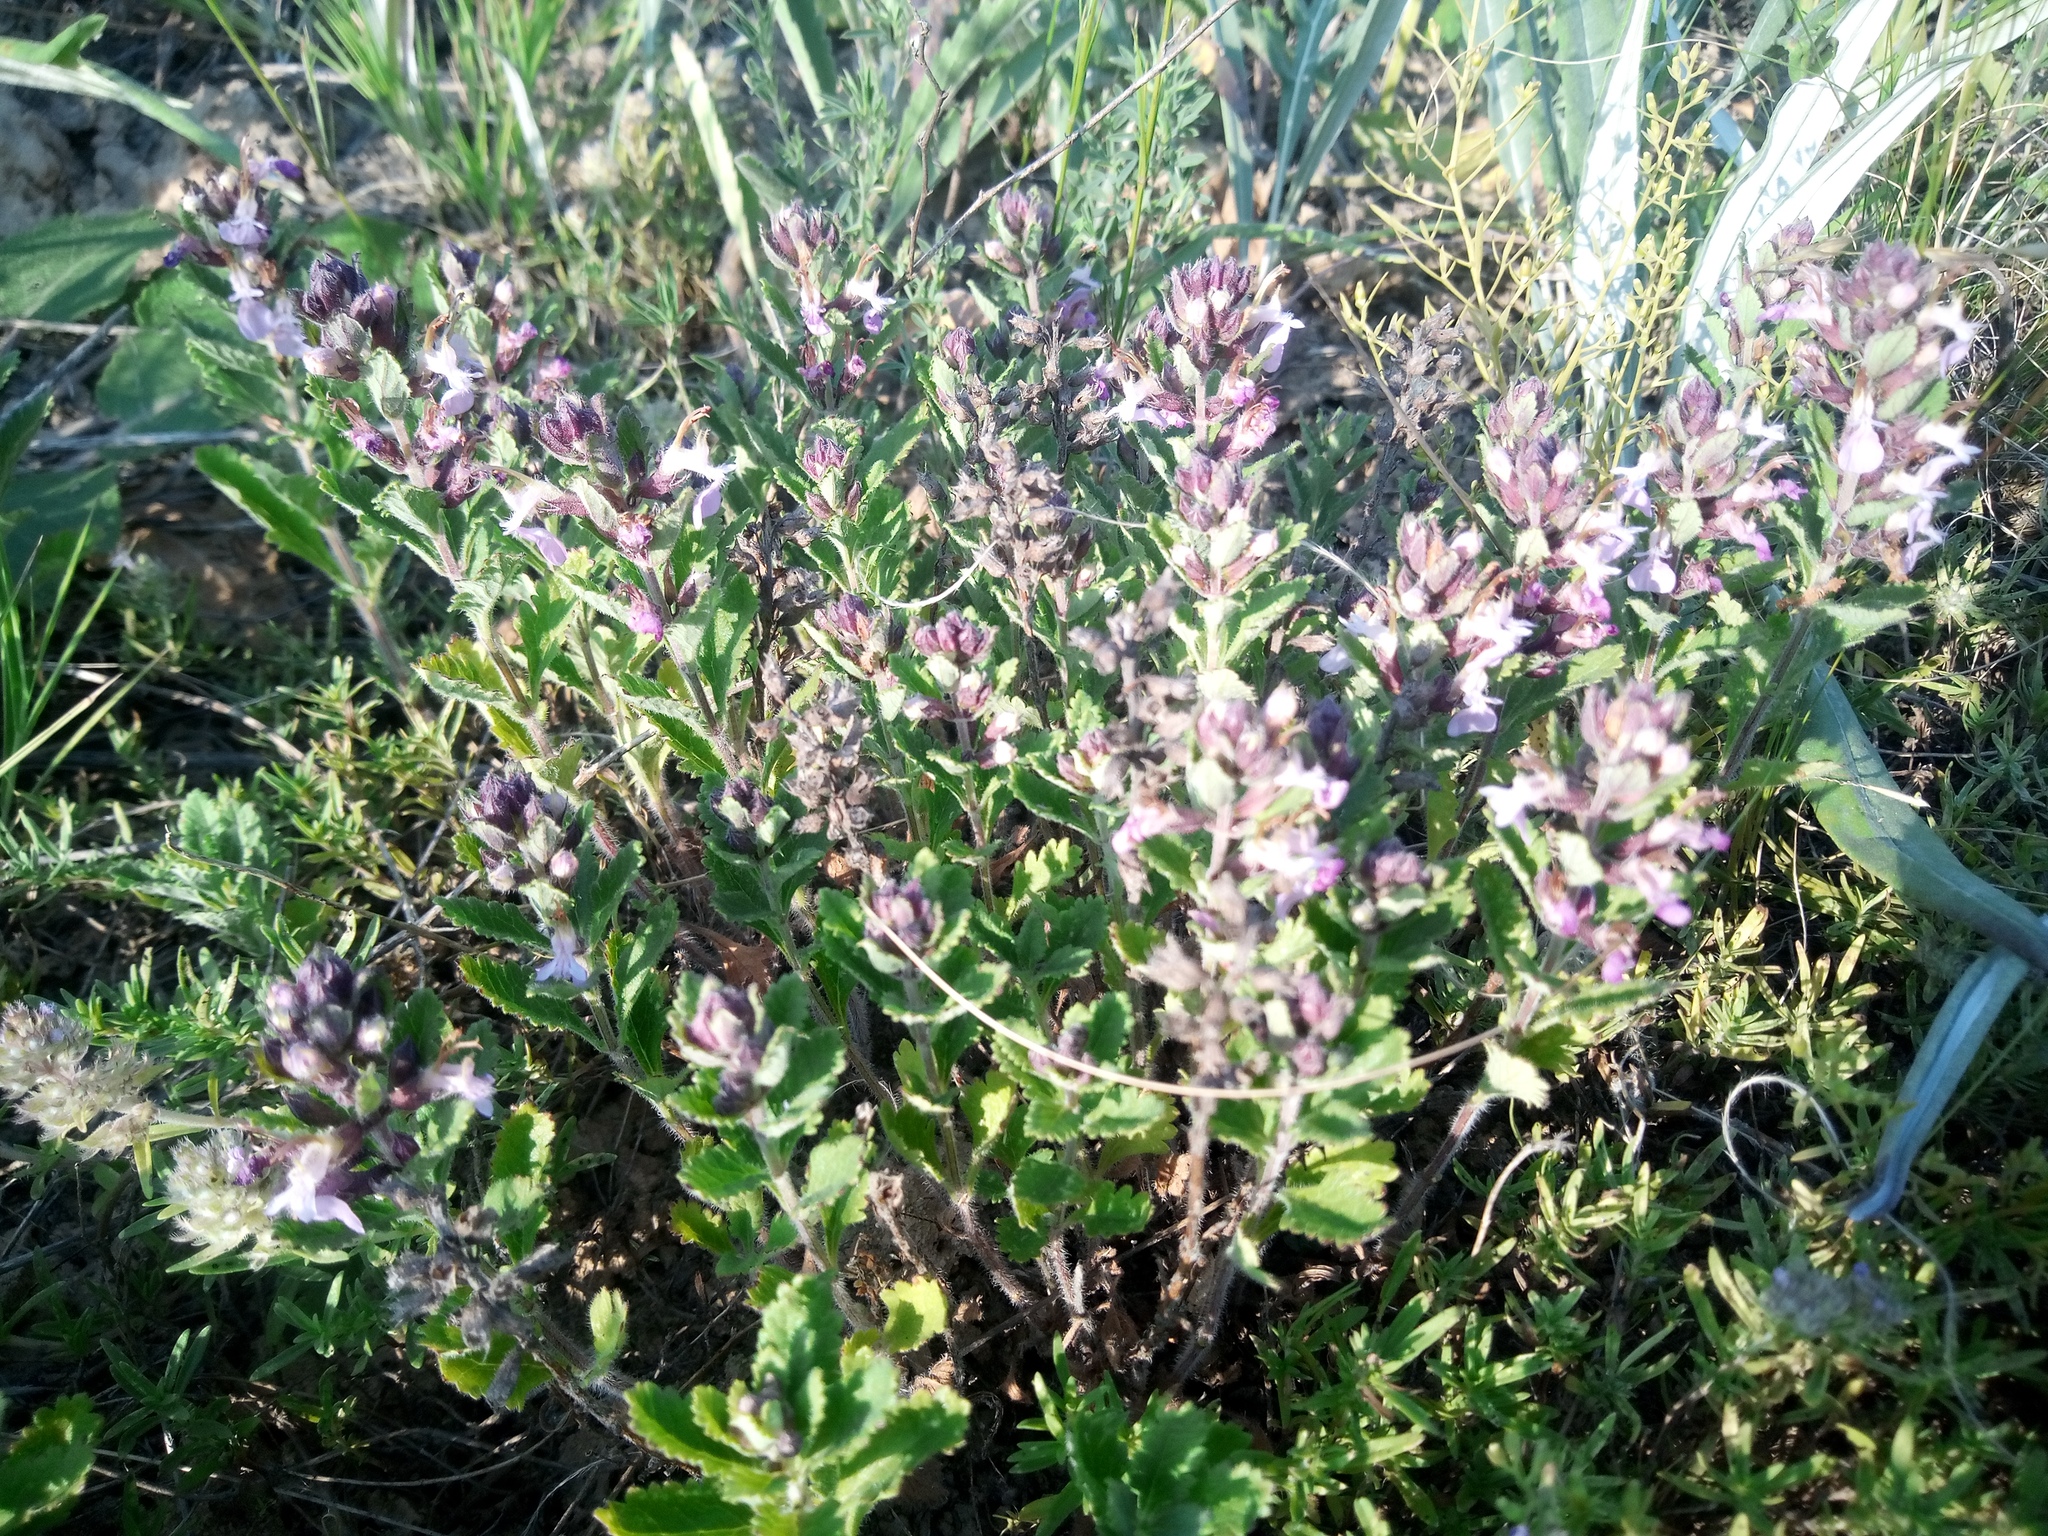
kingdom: Plantae
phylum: Tracheophyta
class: Magnoliopsida
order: Lamiales
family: Lamiaceae
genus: Teucrium
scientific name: Teucrium chamaedrys
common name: Wall germander
